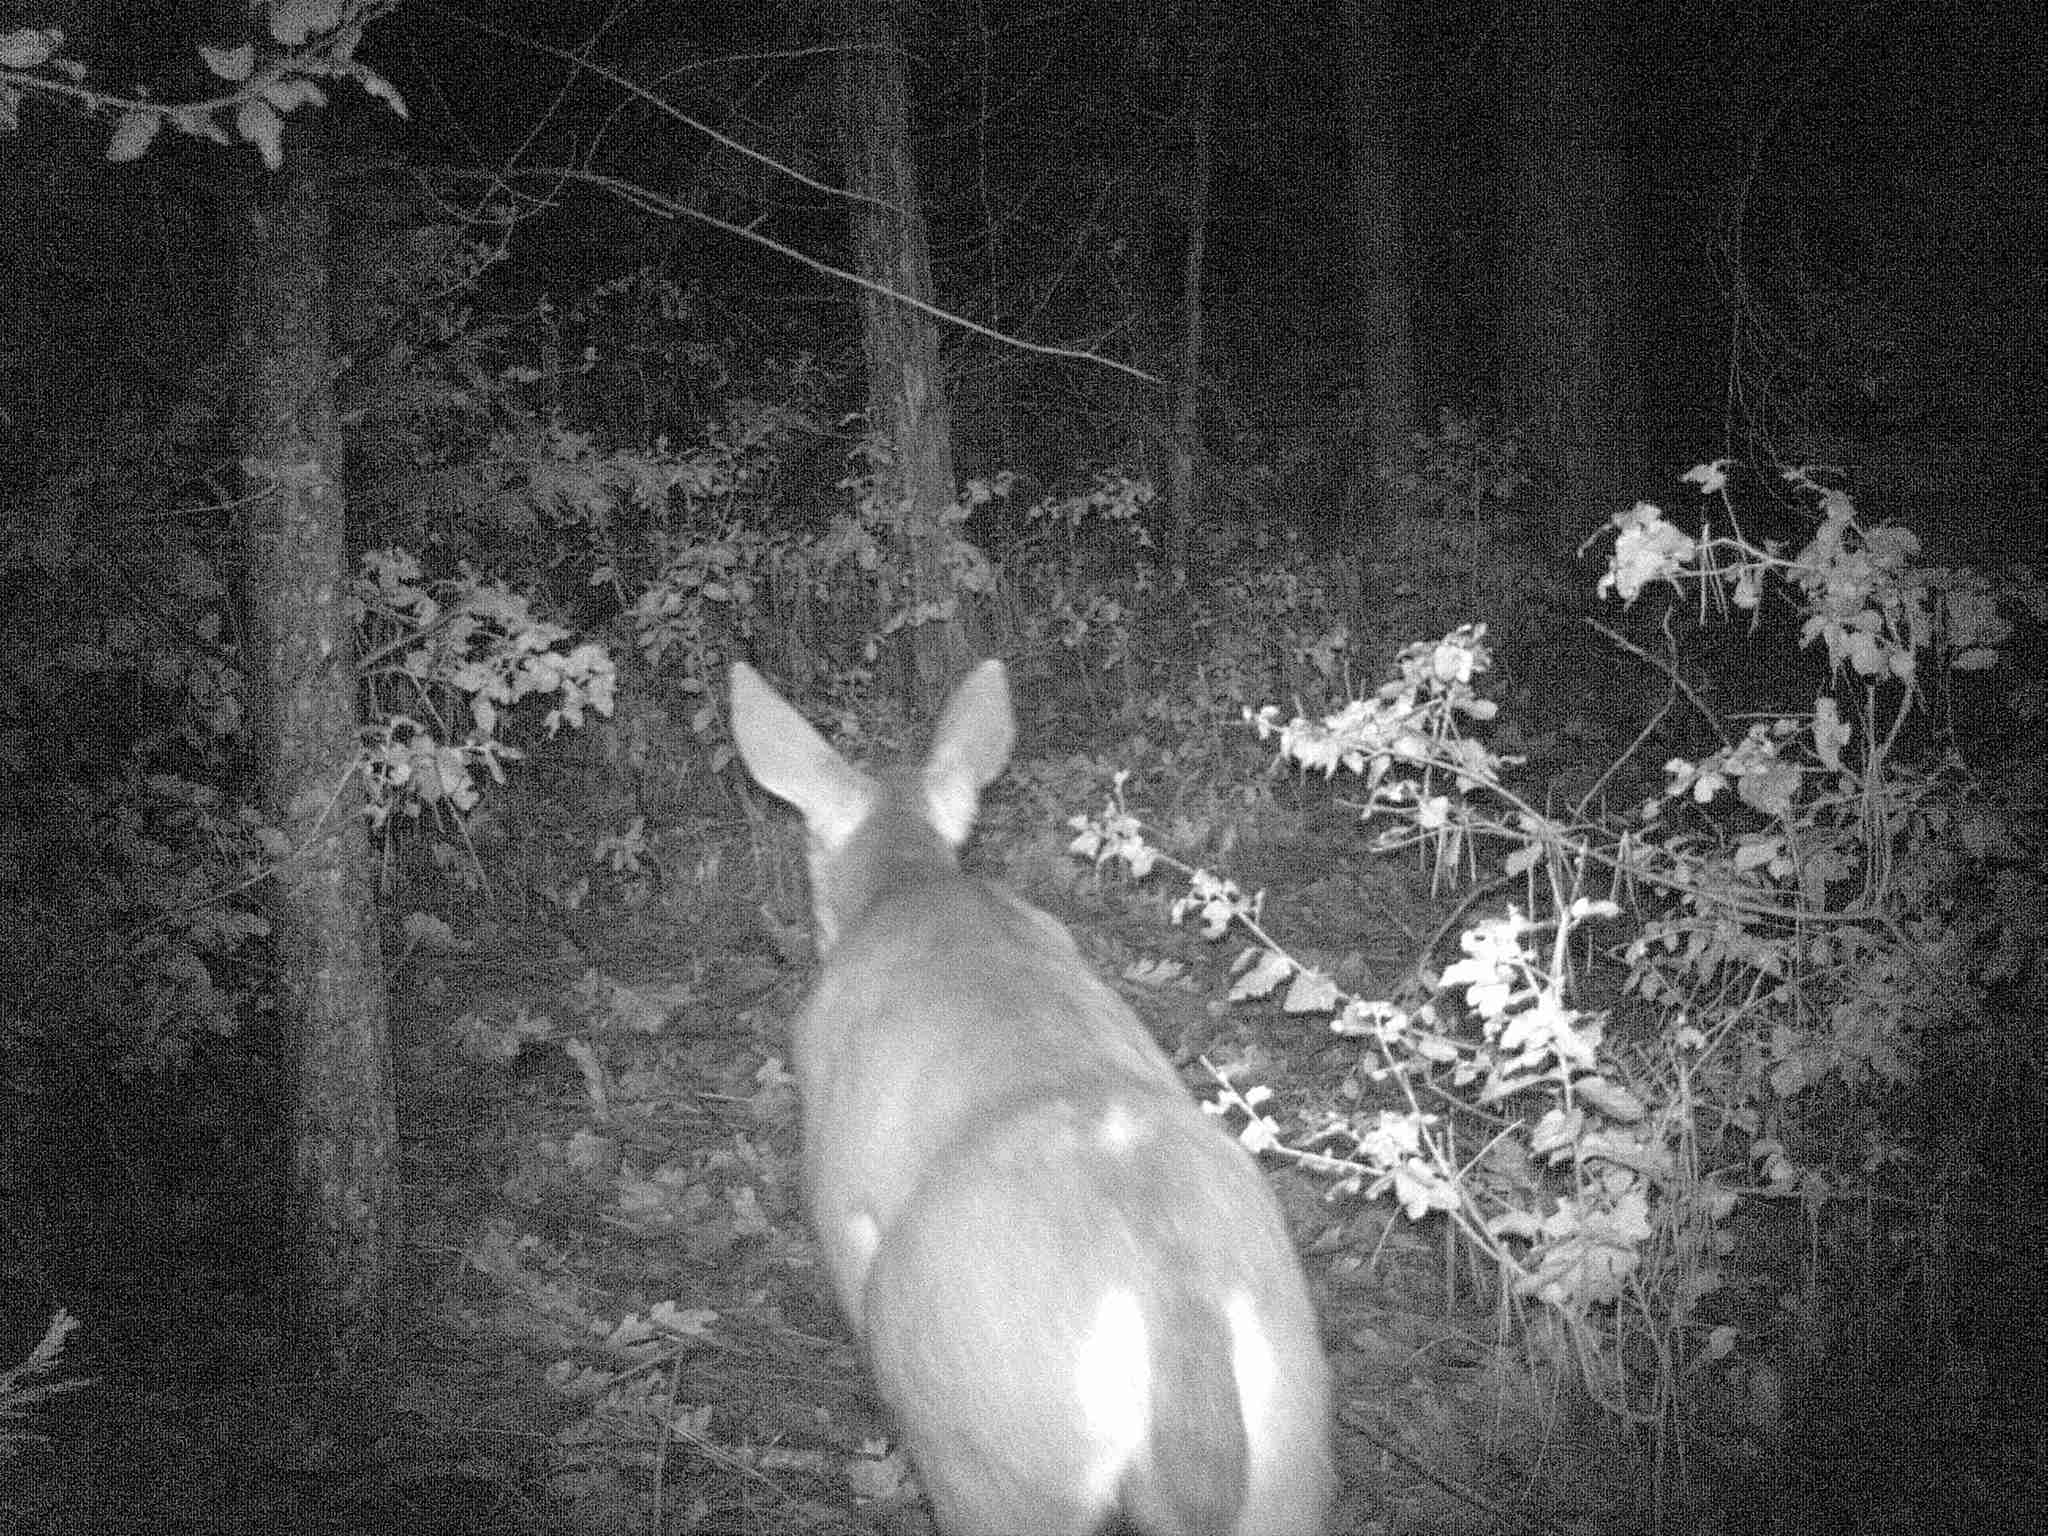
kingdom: Animalia
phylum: Chordata
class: Mammalia
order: Artiodactyla
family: Cervidae
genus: Odocoileus
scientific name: Odocoileus hemionus
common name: Mule deer
